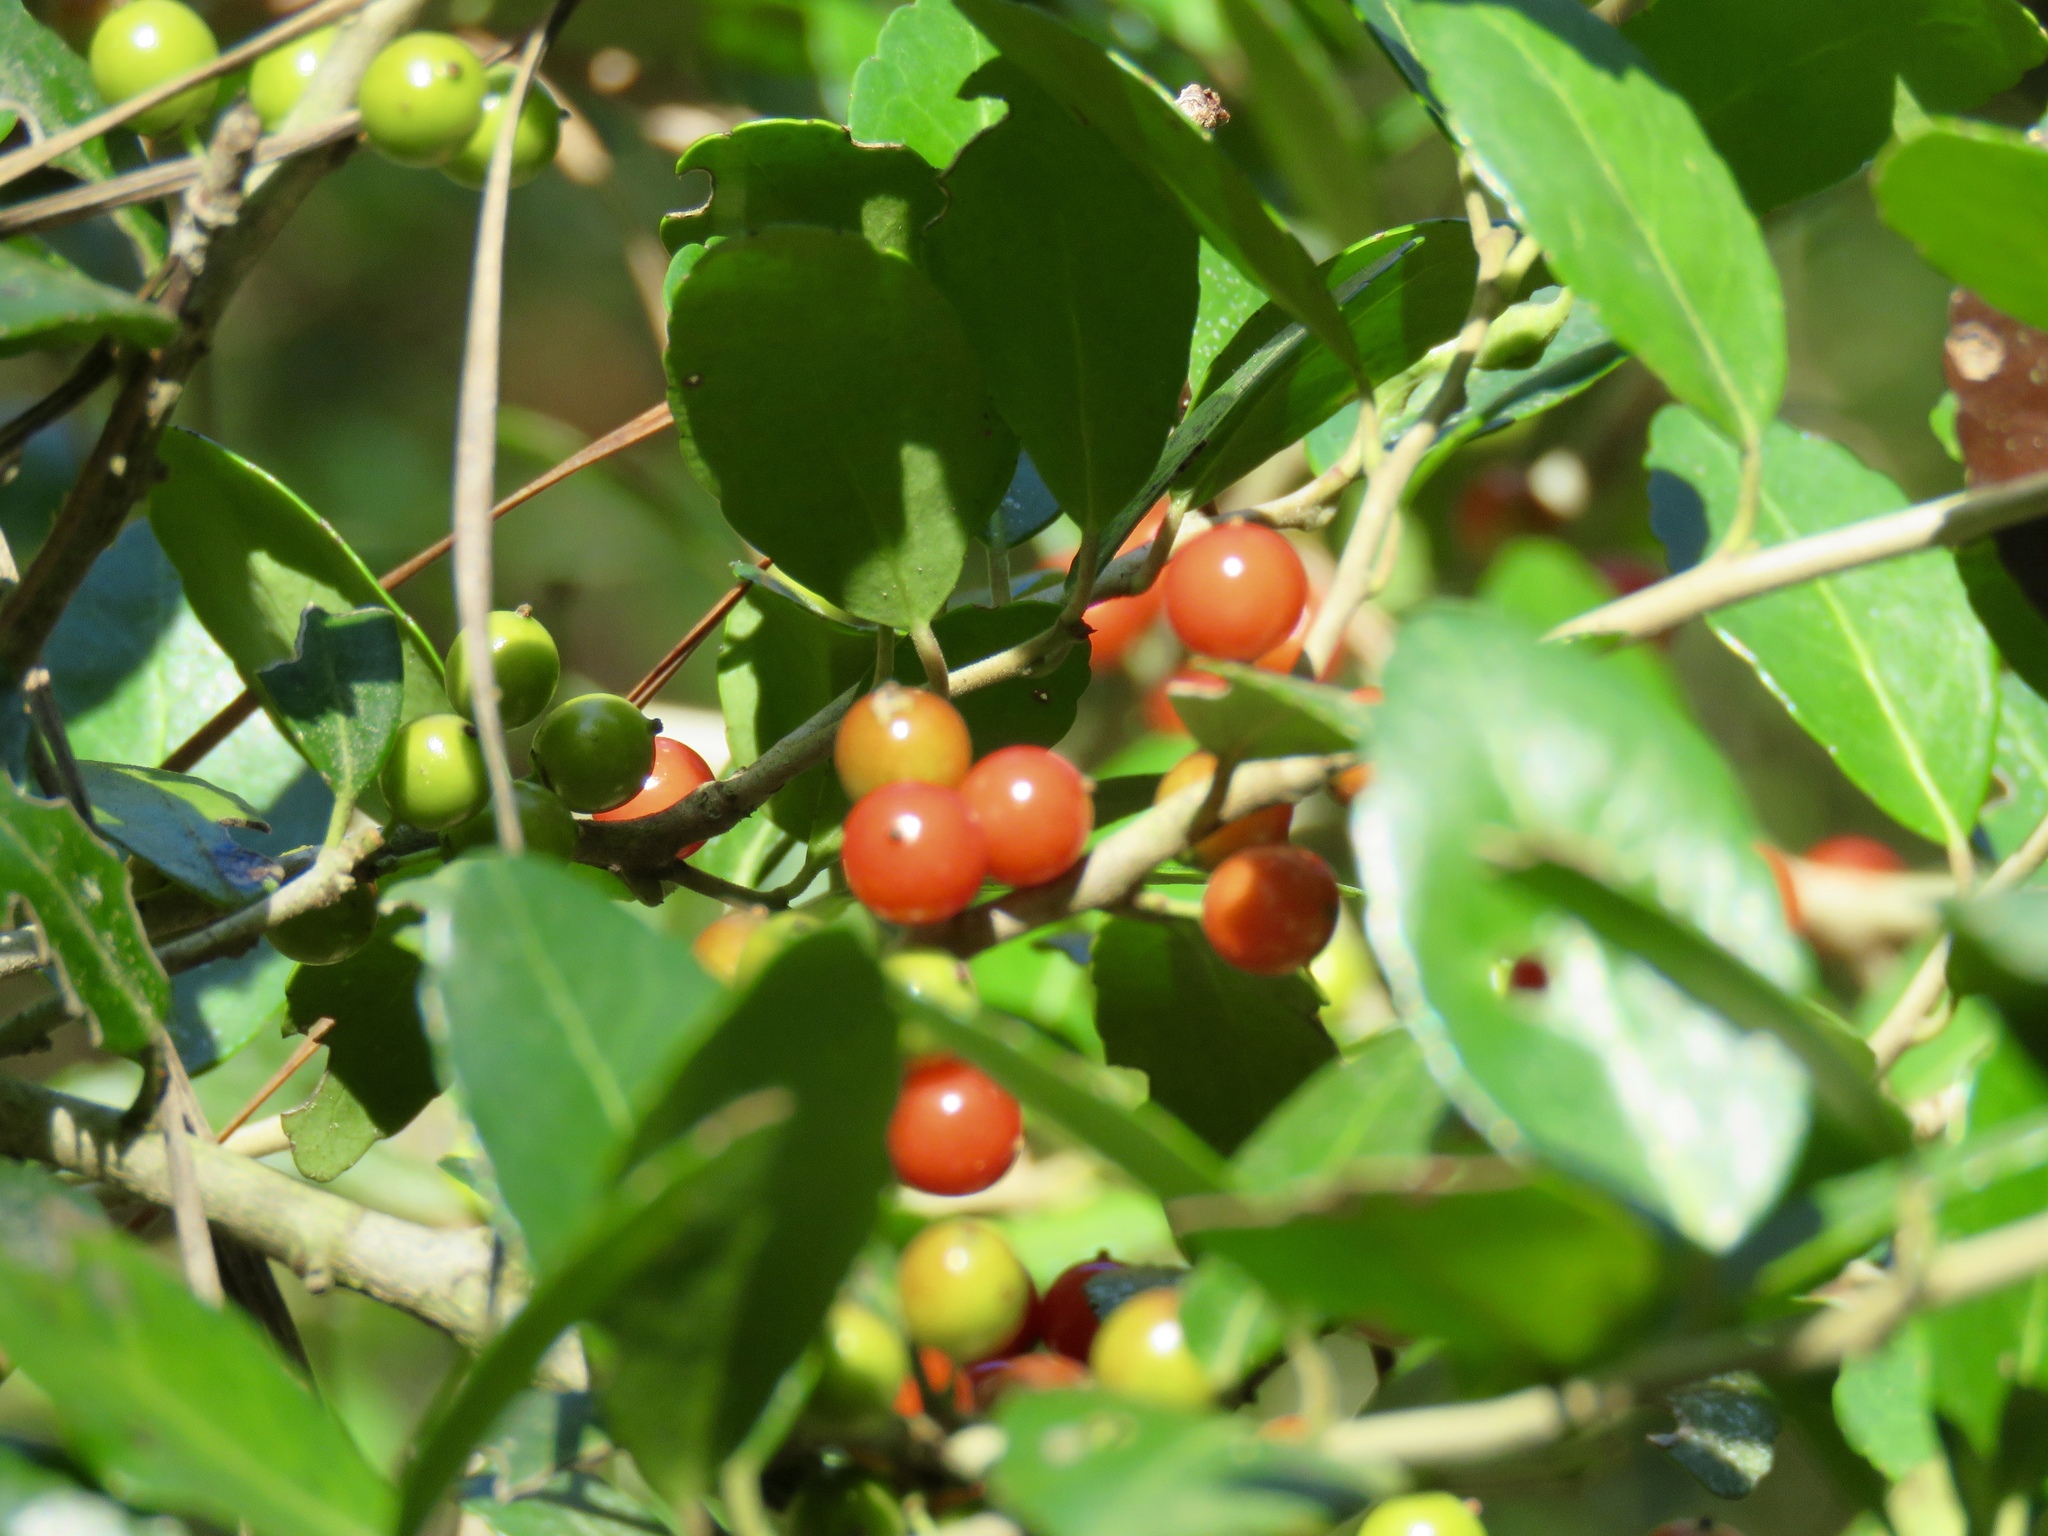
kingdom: Plantae
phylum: Tracheophyta
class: Magnoliopsida
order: Aquifoliales
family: Aquifoliaceae
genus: Ilex
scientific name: Ilex vomitoria
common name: Yaupon holly
